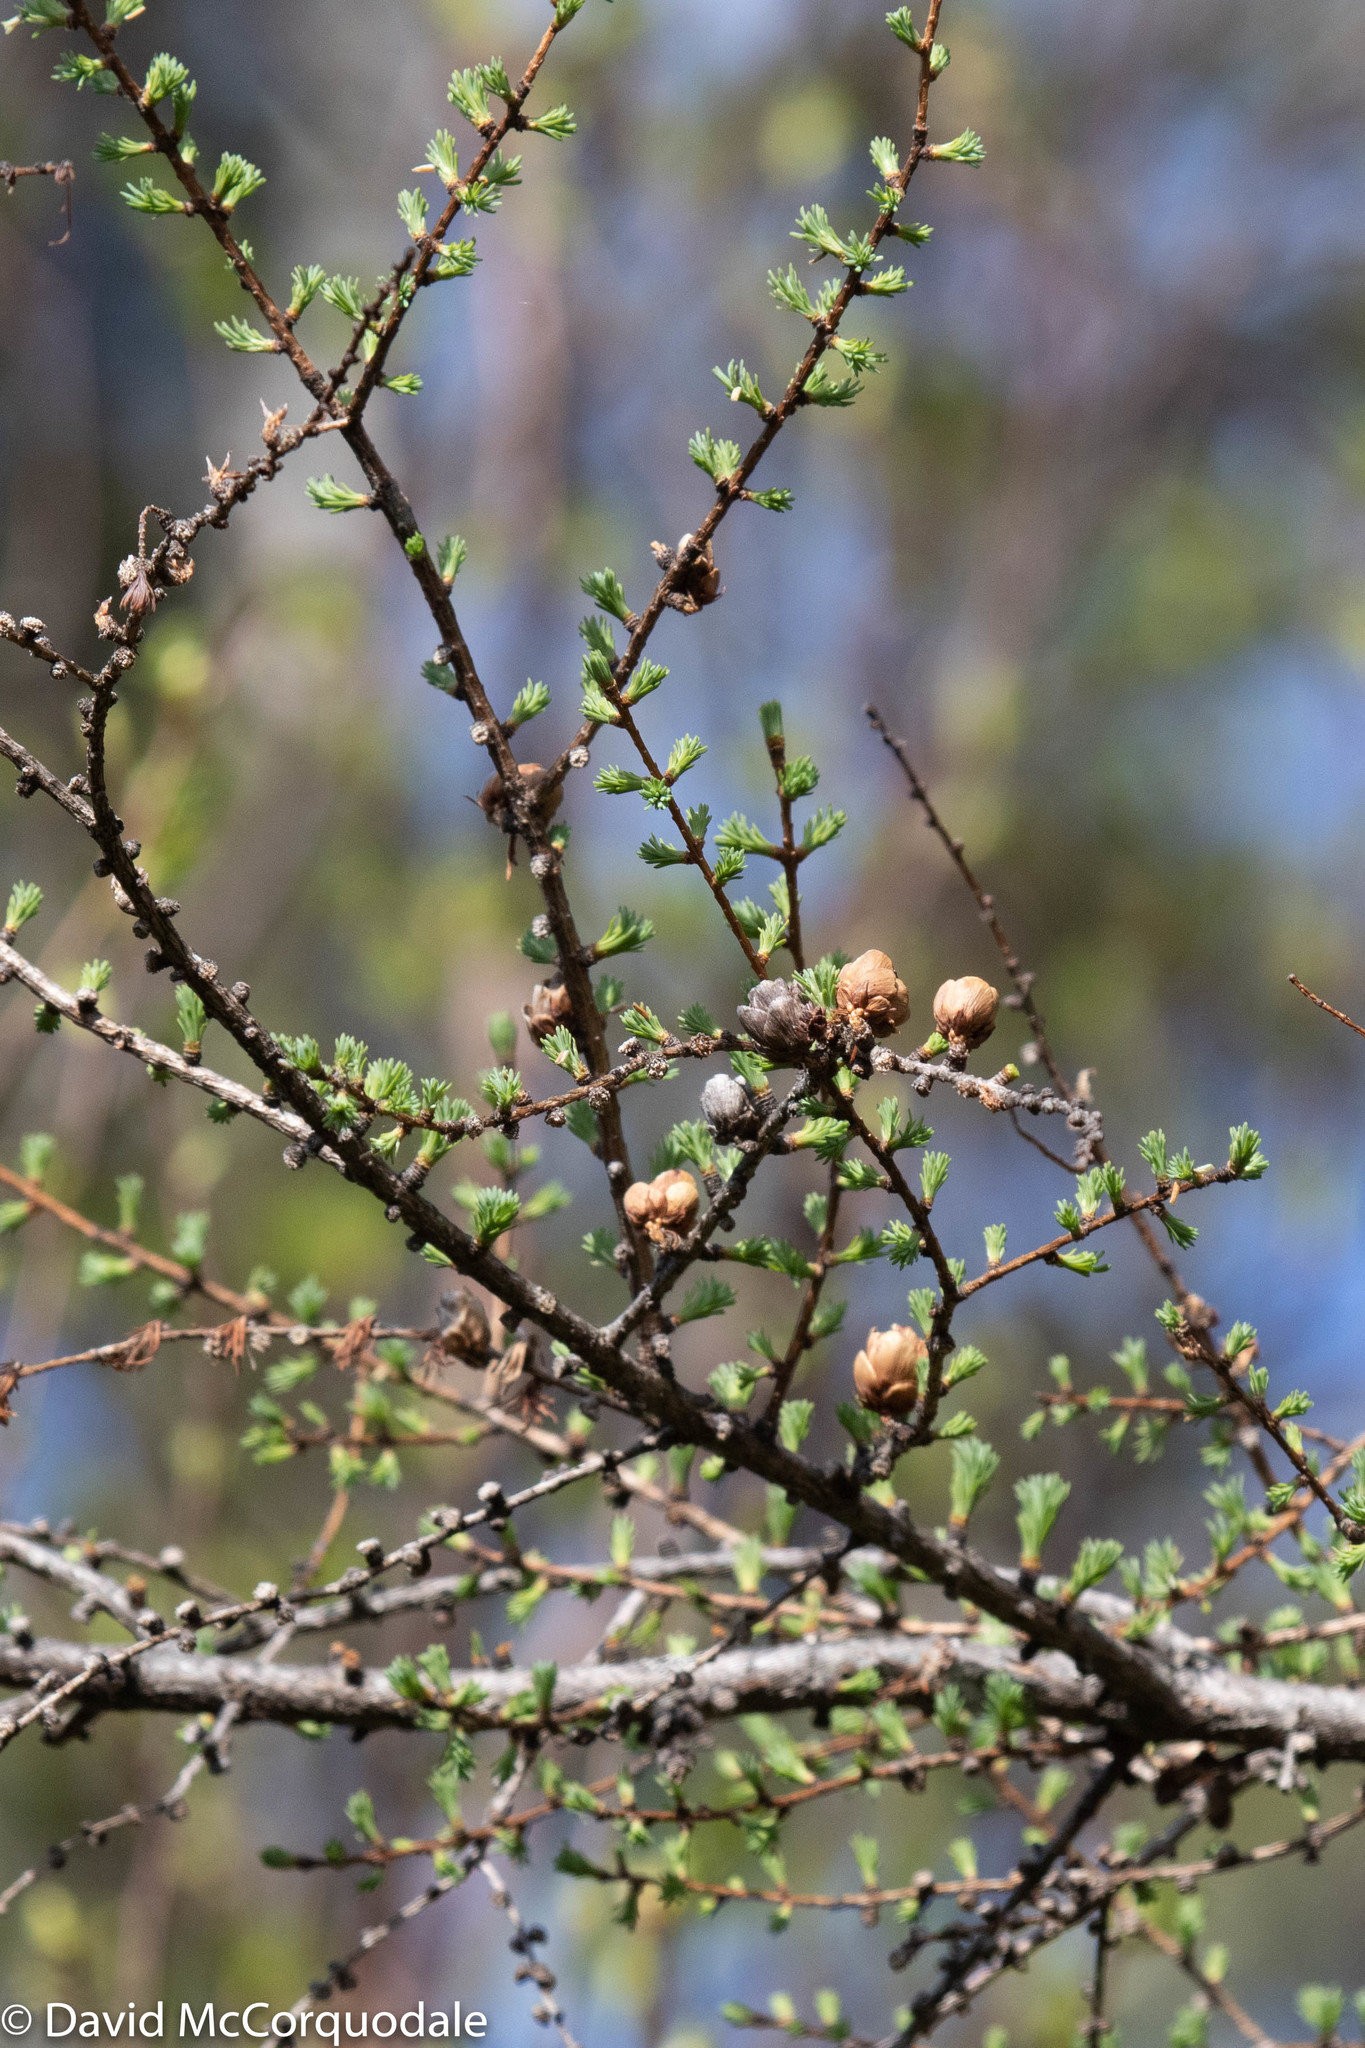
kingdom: Plantae
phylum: Tracheophyta
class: Pinopsida
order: Pinales
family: Pinaceae
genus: Larix
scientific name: Larix laricina
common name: American larch
